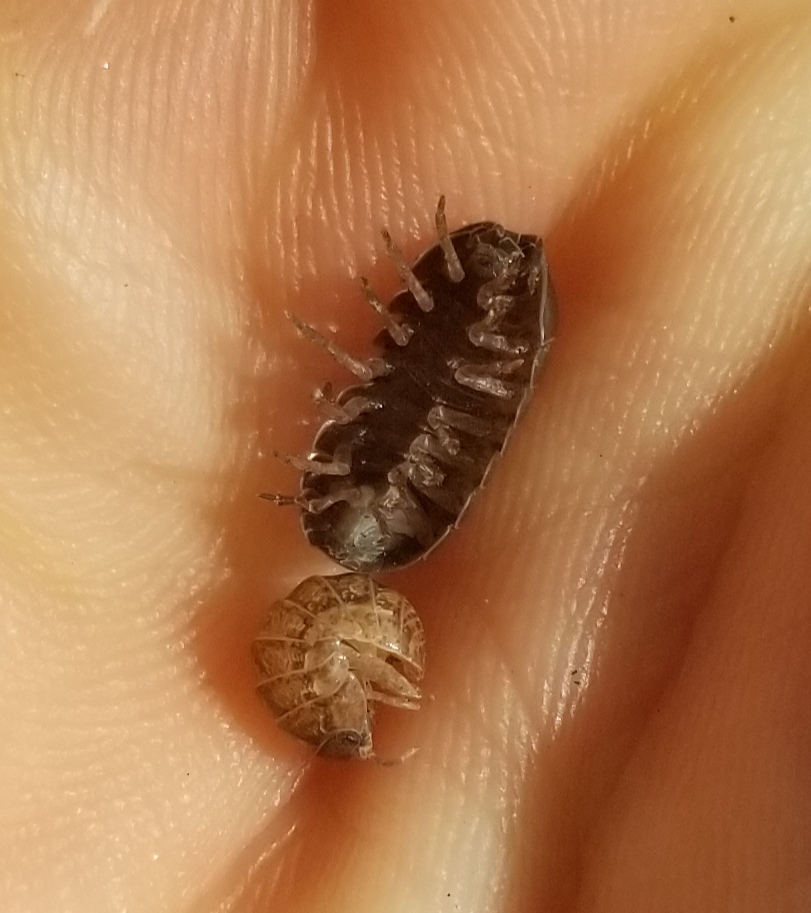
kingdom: Animalia
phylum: Arthropoda
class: Malacostraca
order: Isopoda
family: Armadillidiidae
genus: Armadillidium
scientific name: Armadillidium vulgare
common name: Common pill woodlouse
